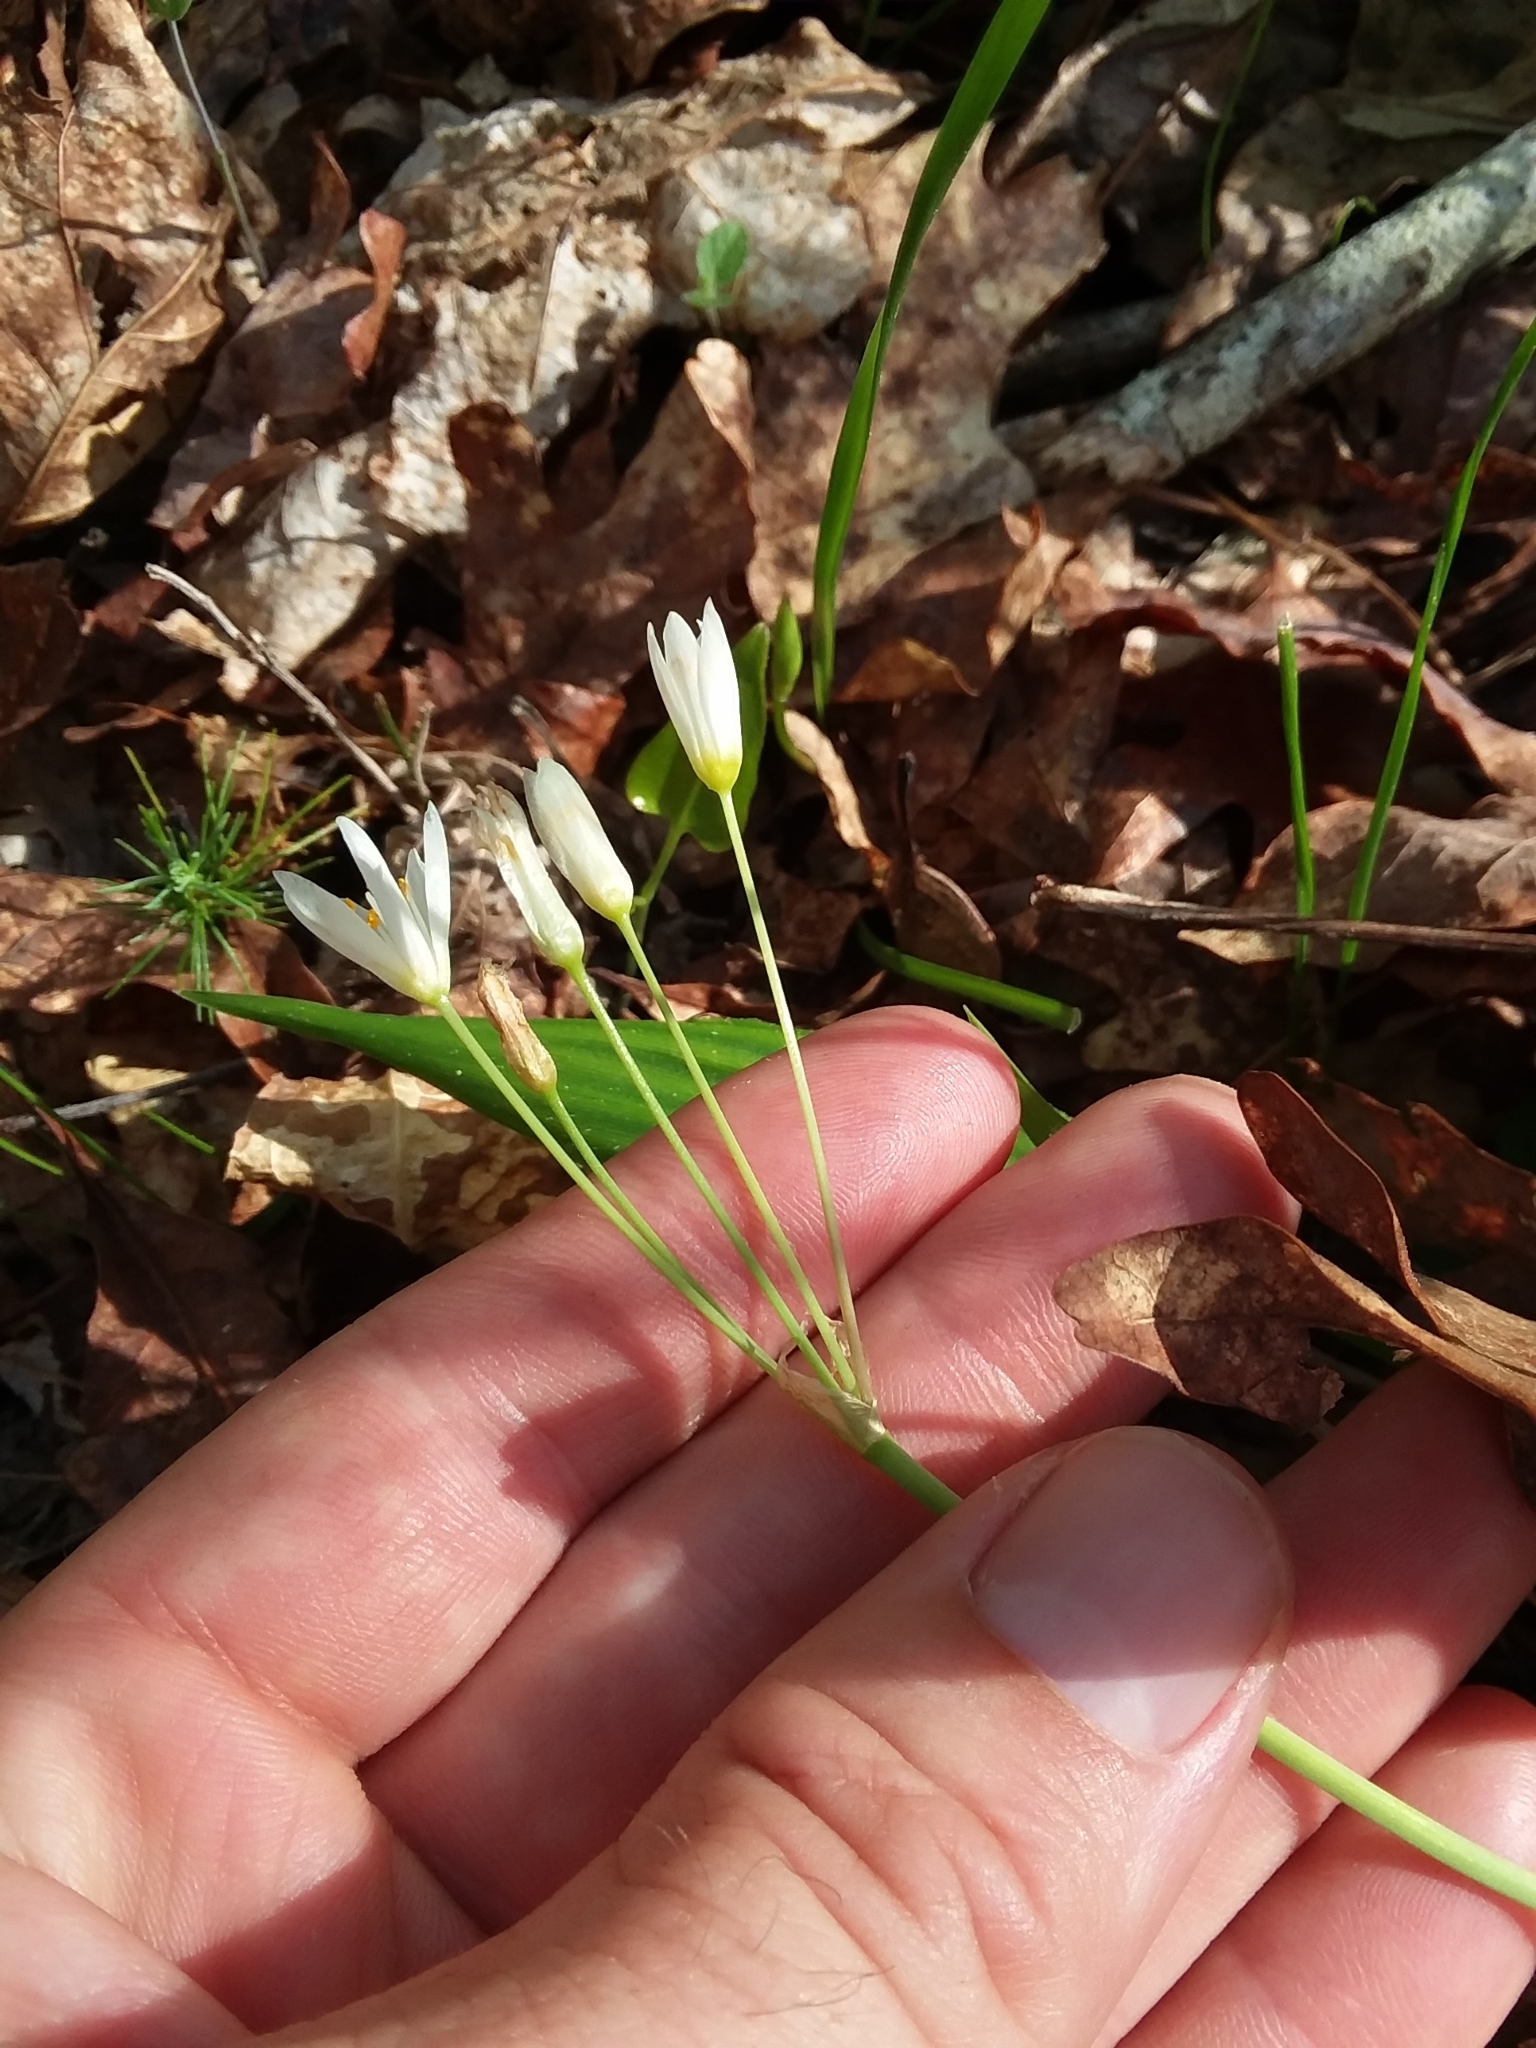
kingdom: Plantae
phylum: Tracheophyta
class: Liliopsida
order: Asparagales
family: Amaryllidaceae
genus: Nothoscordum
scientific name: Nothoscordum bivalve
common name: Crow-poison
